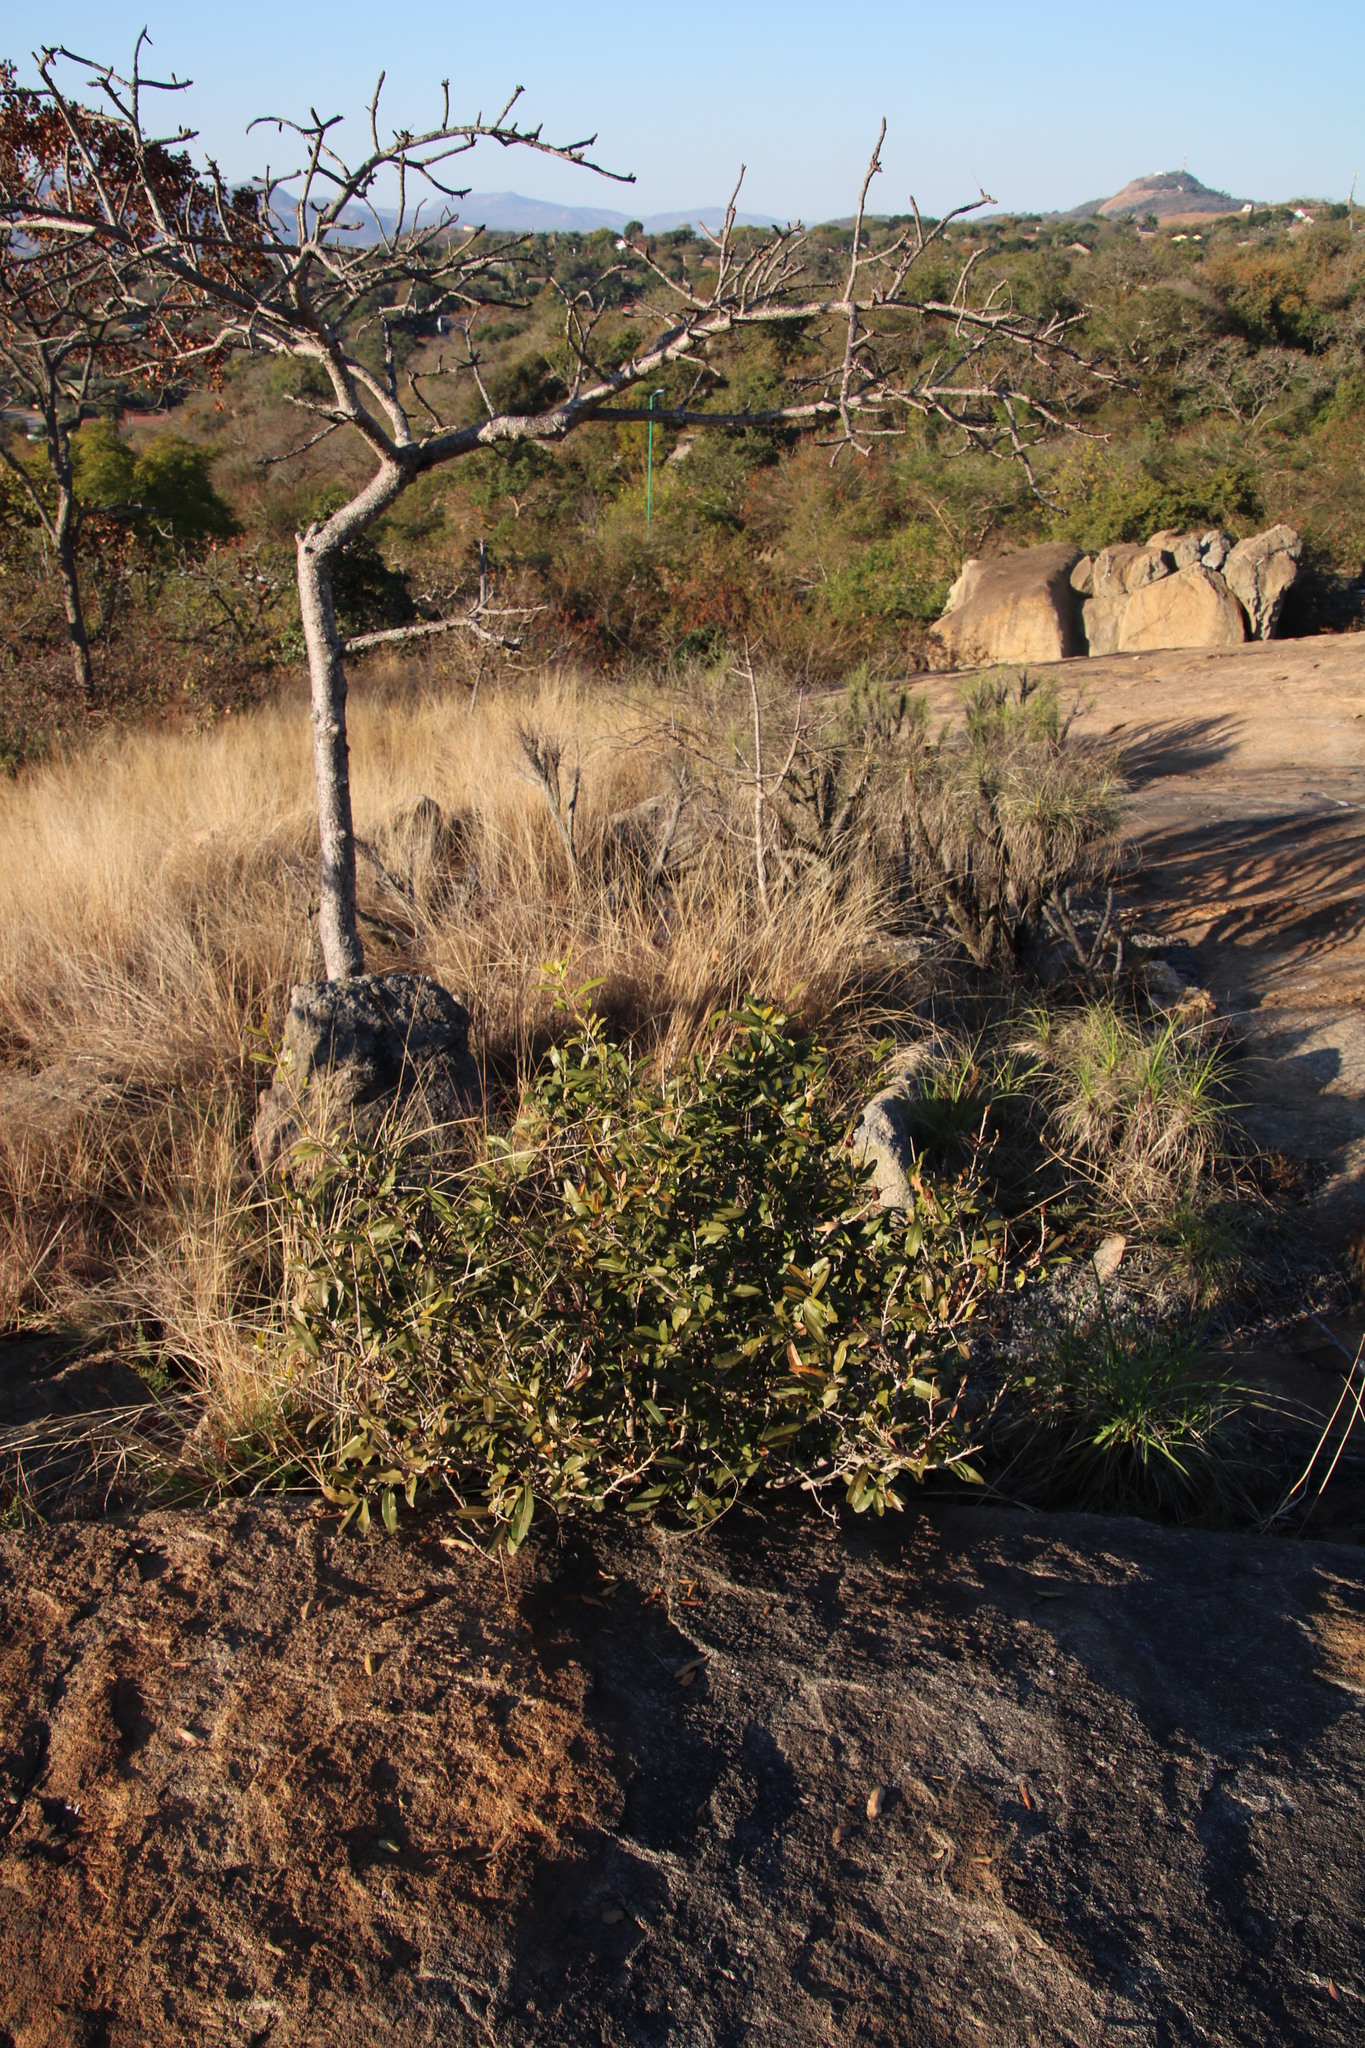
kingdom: Plantae
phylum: Tracheophyta
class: Magnoliopsida
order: Malpighiales
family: Ochnaceae
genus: Ochna
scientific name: Ochna serrulata
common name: Mickey mouse plant
